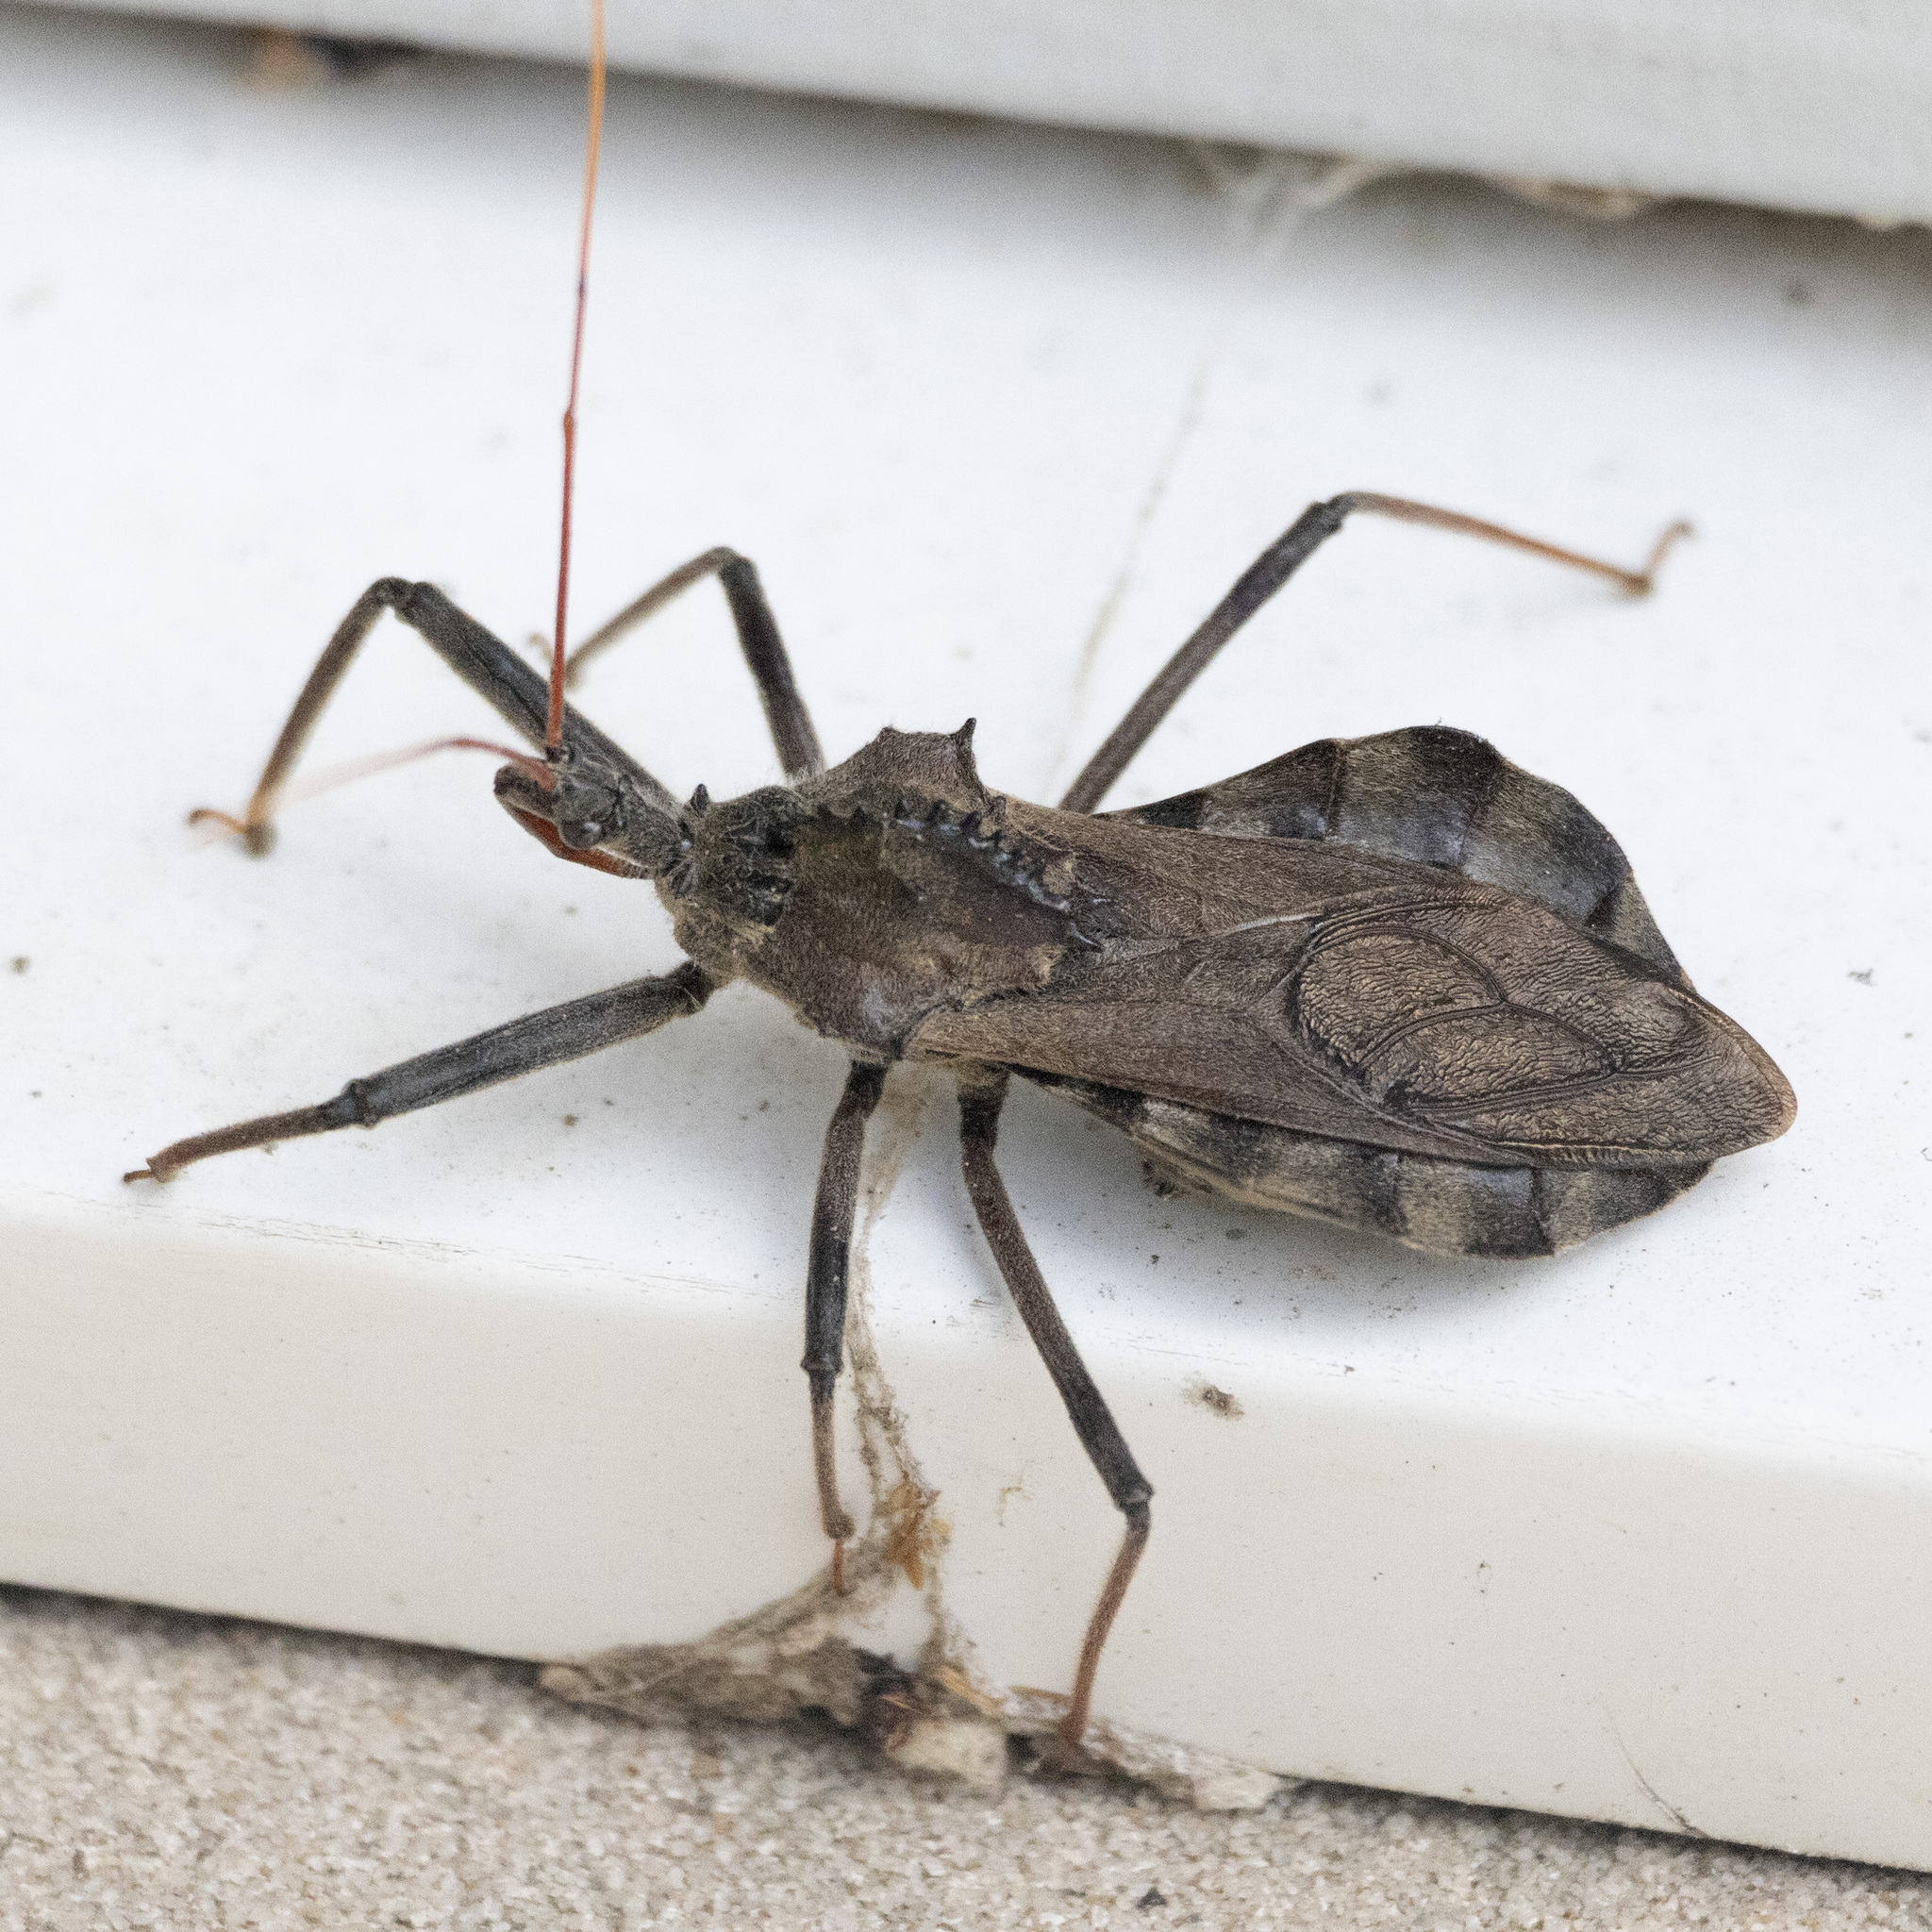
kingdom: Animalia
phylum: Arthropoda
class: Insecta
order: Hemiptera
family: Reduviidae
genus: Arilus
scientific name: Arilus cristatus
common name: North american wheel bug
